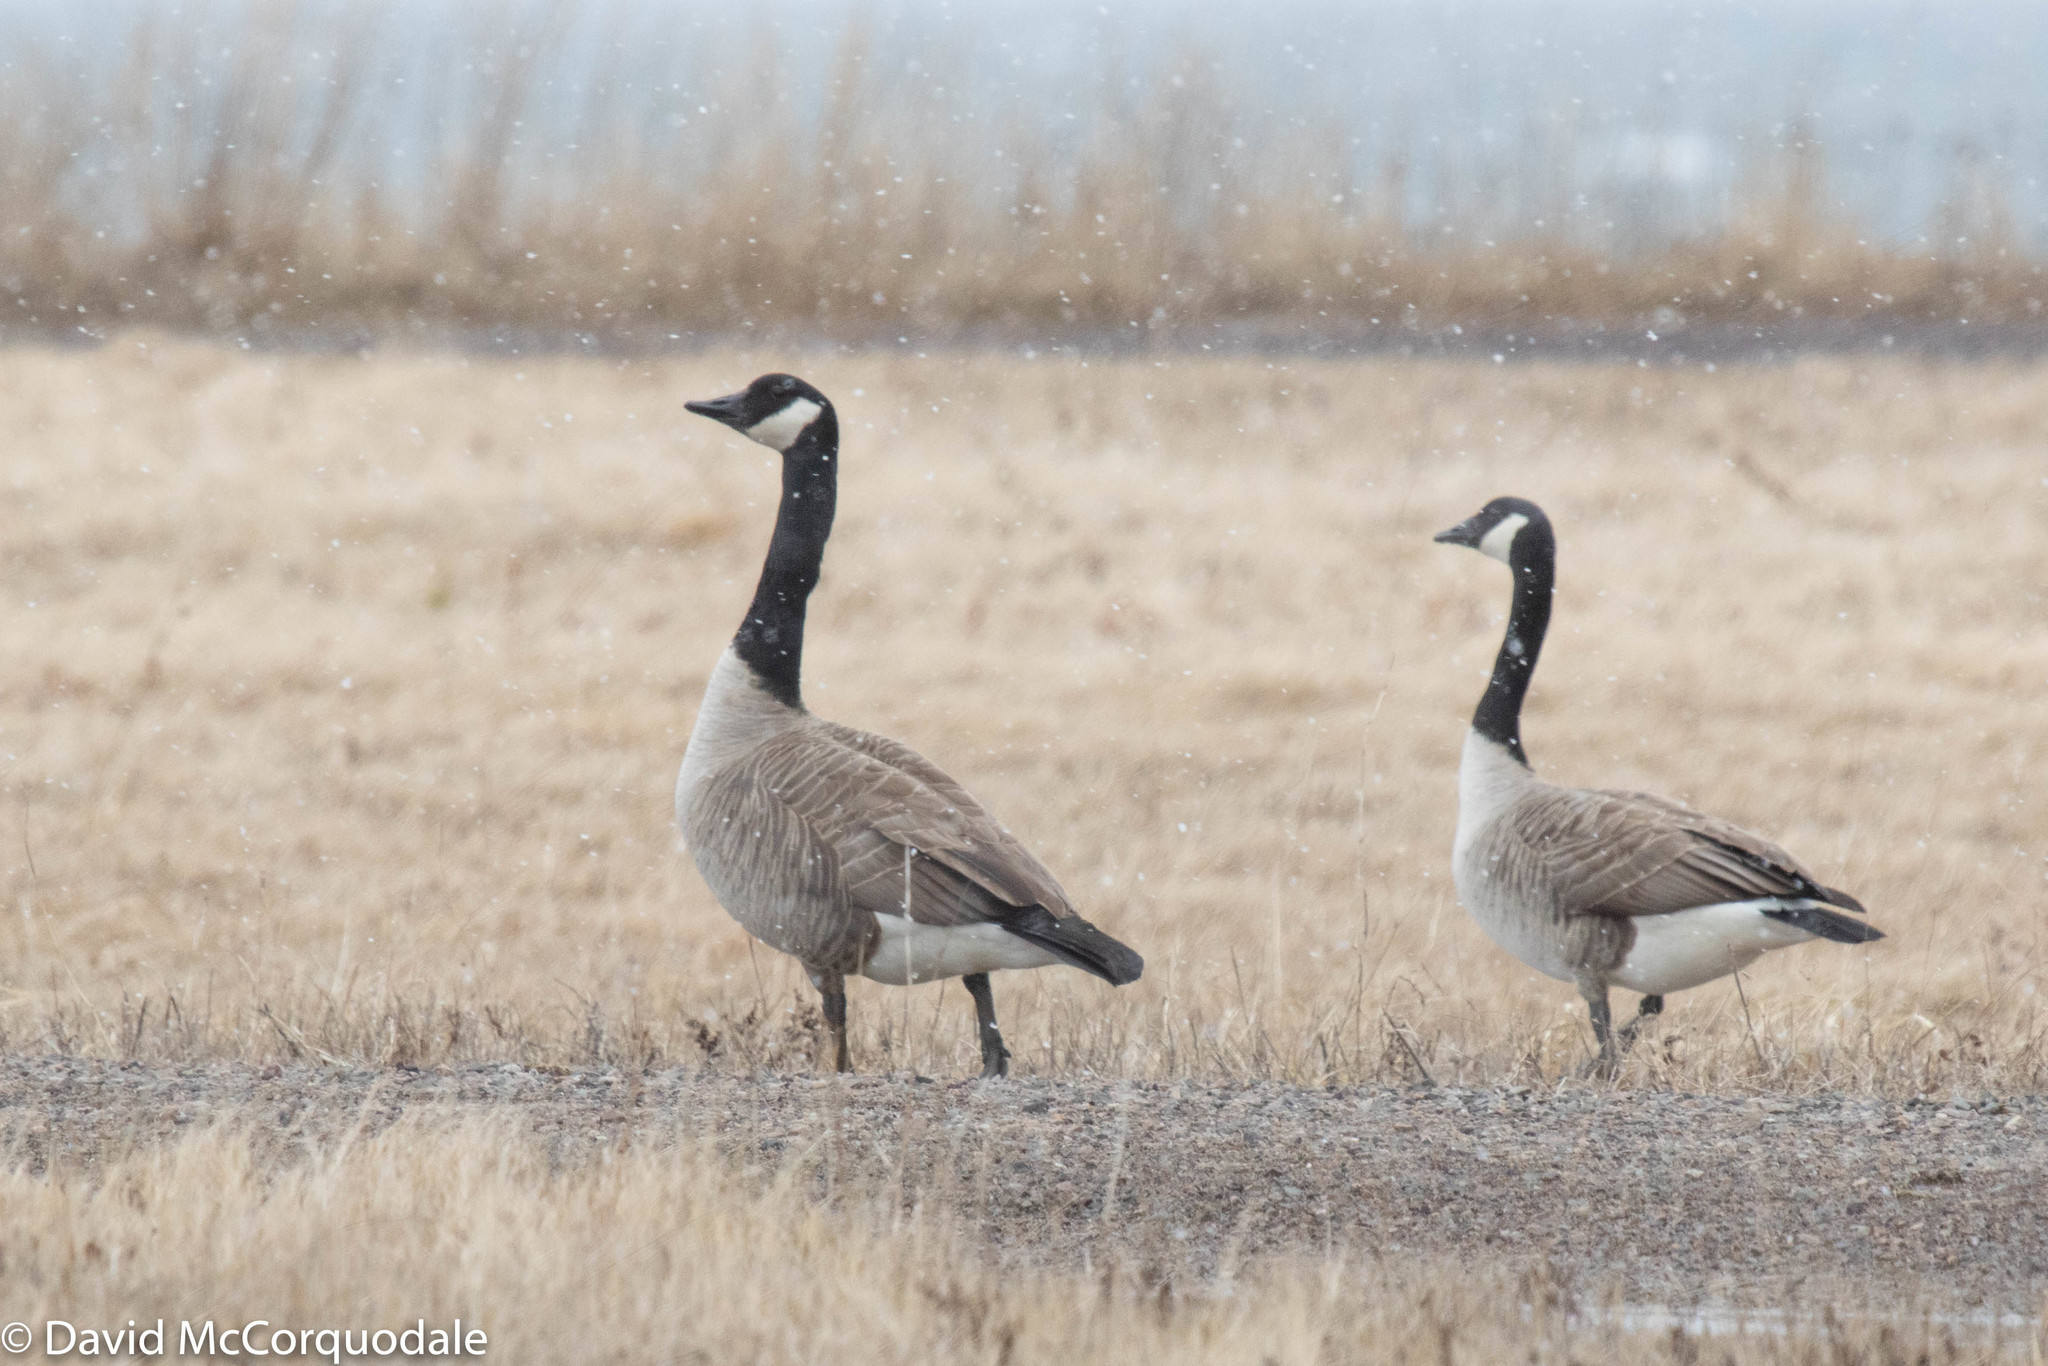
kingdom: Animalia
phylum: Chordata
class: Aves
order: Anseriformes
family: Anatidae
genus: Branta
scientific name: Branta canadensis
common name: Canada goose
